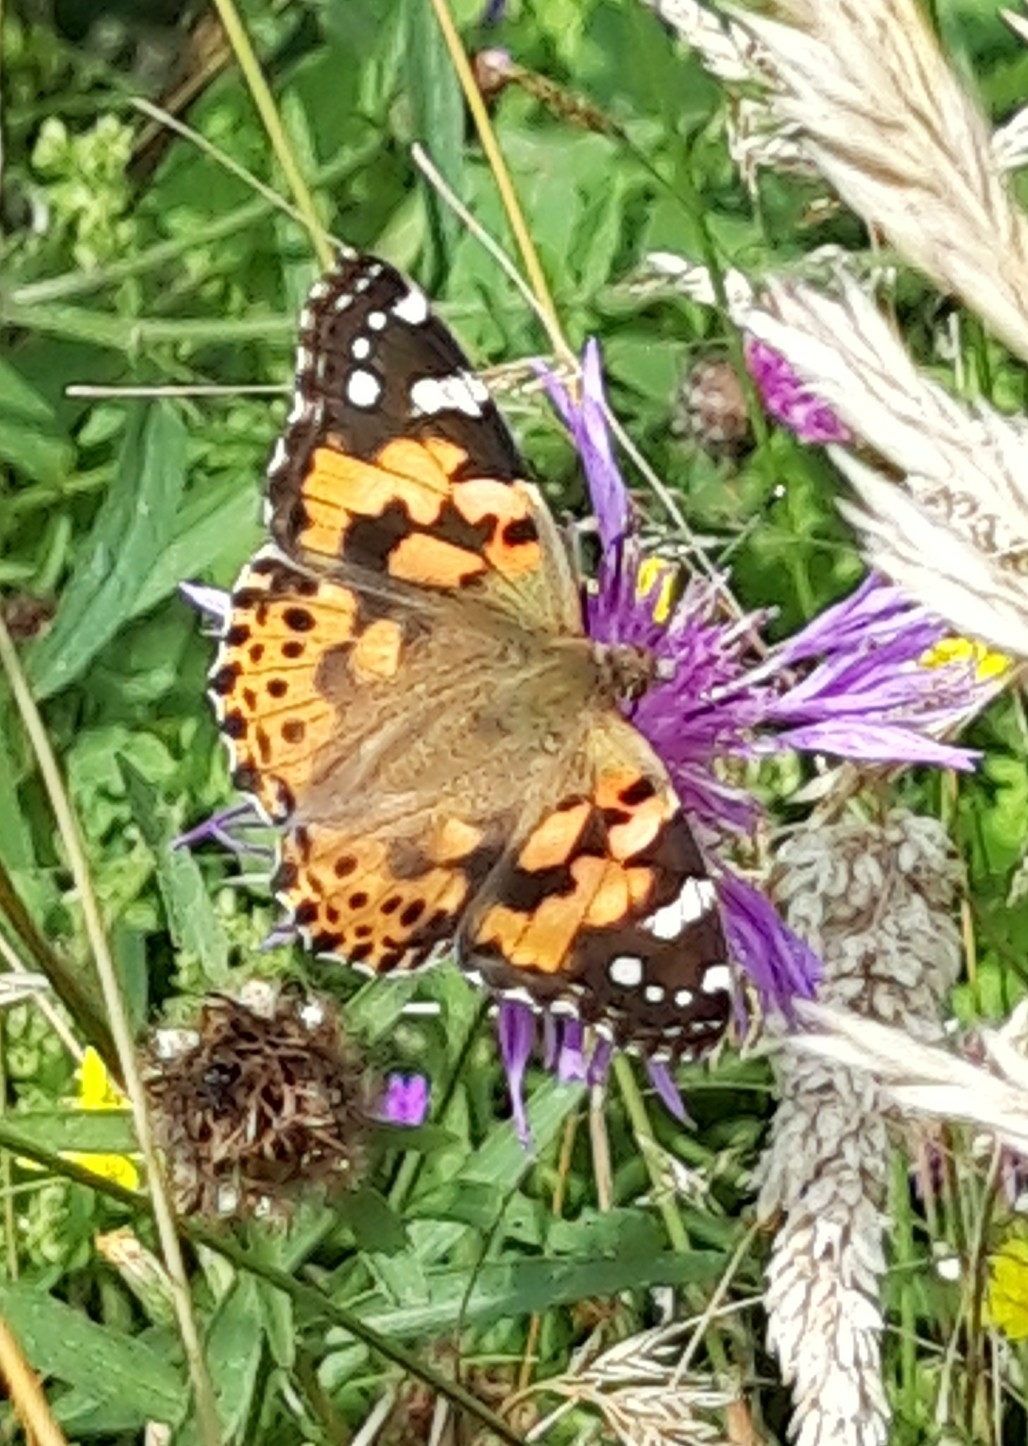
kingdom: Animalia
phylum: Arthropoda
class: Insecta
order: Lepidoptera
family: Nymphalidae
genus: Vanessa
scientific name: Vanessa cardui
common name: Painted lady
